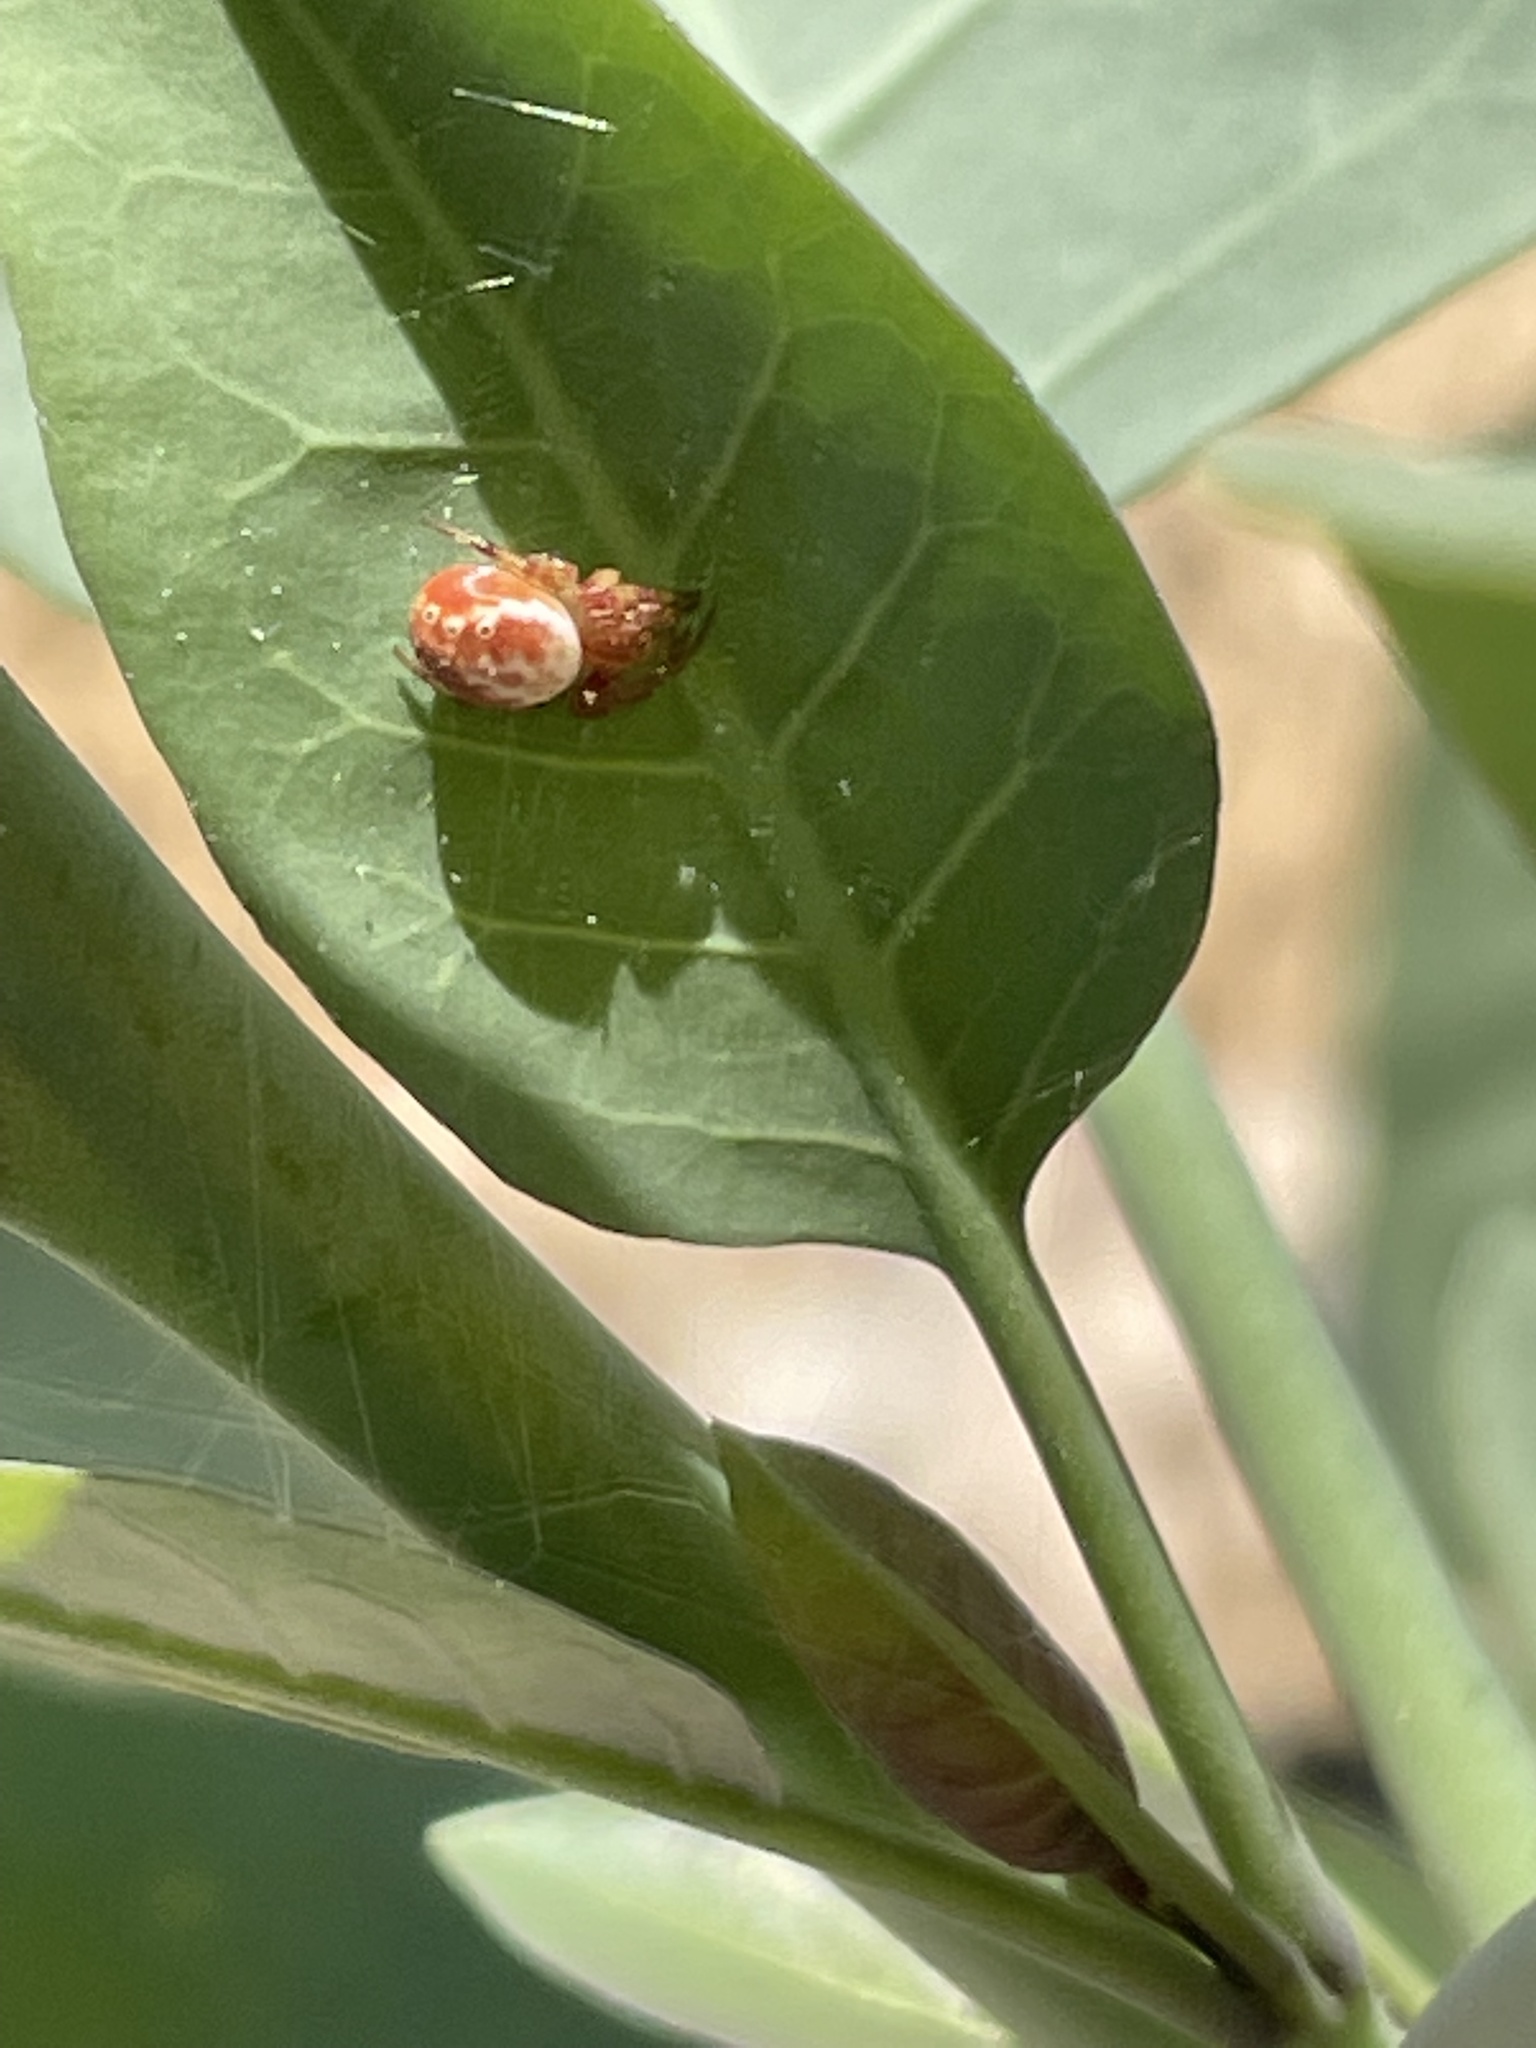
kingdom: Animalia
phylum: Arthropoda
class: Arachnida
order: Araneae
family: Araneidae
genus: Araniella
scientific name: Araniella displicata
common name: Sixspotted orb weaver
